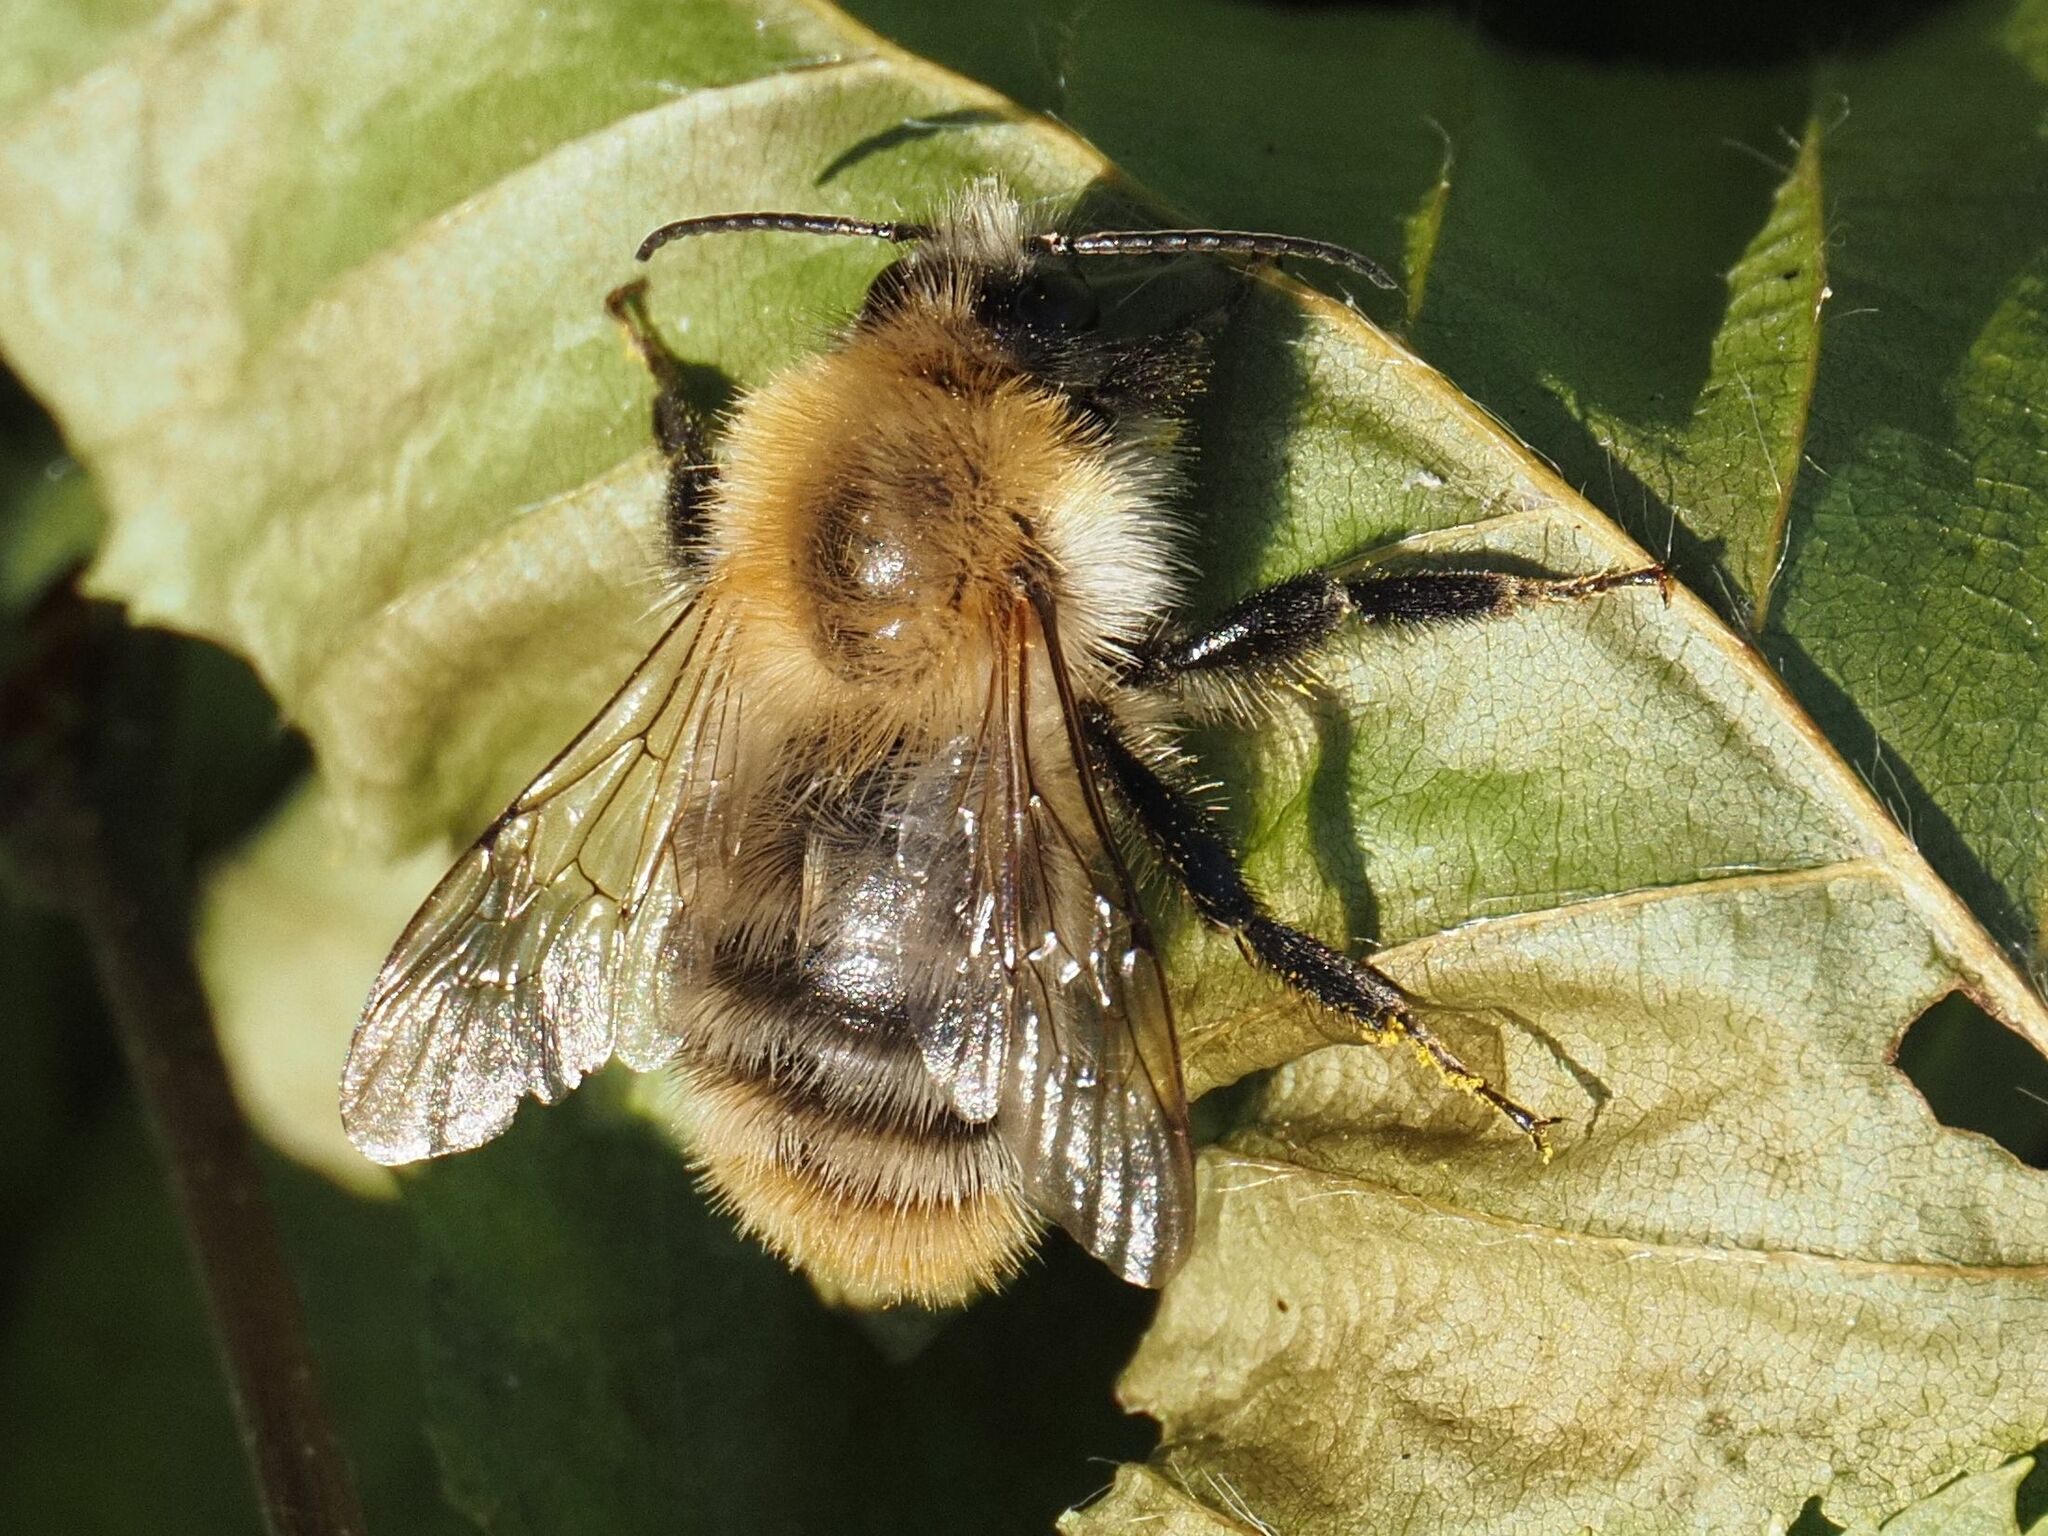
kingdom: Animalia
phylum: Arthropoda
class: Insecta
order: Hymenoptera
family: Apidae
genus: Bombus
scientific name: Bombus pascuorum
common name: Common carder bee
